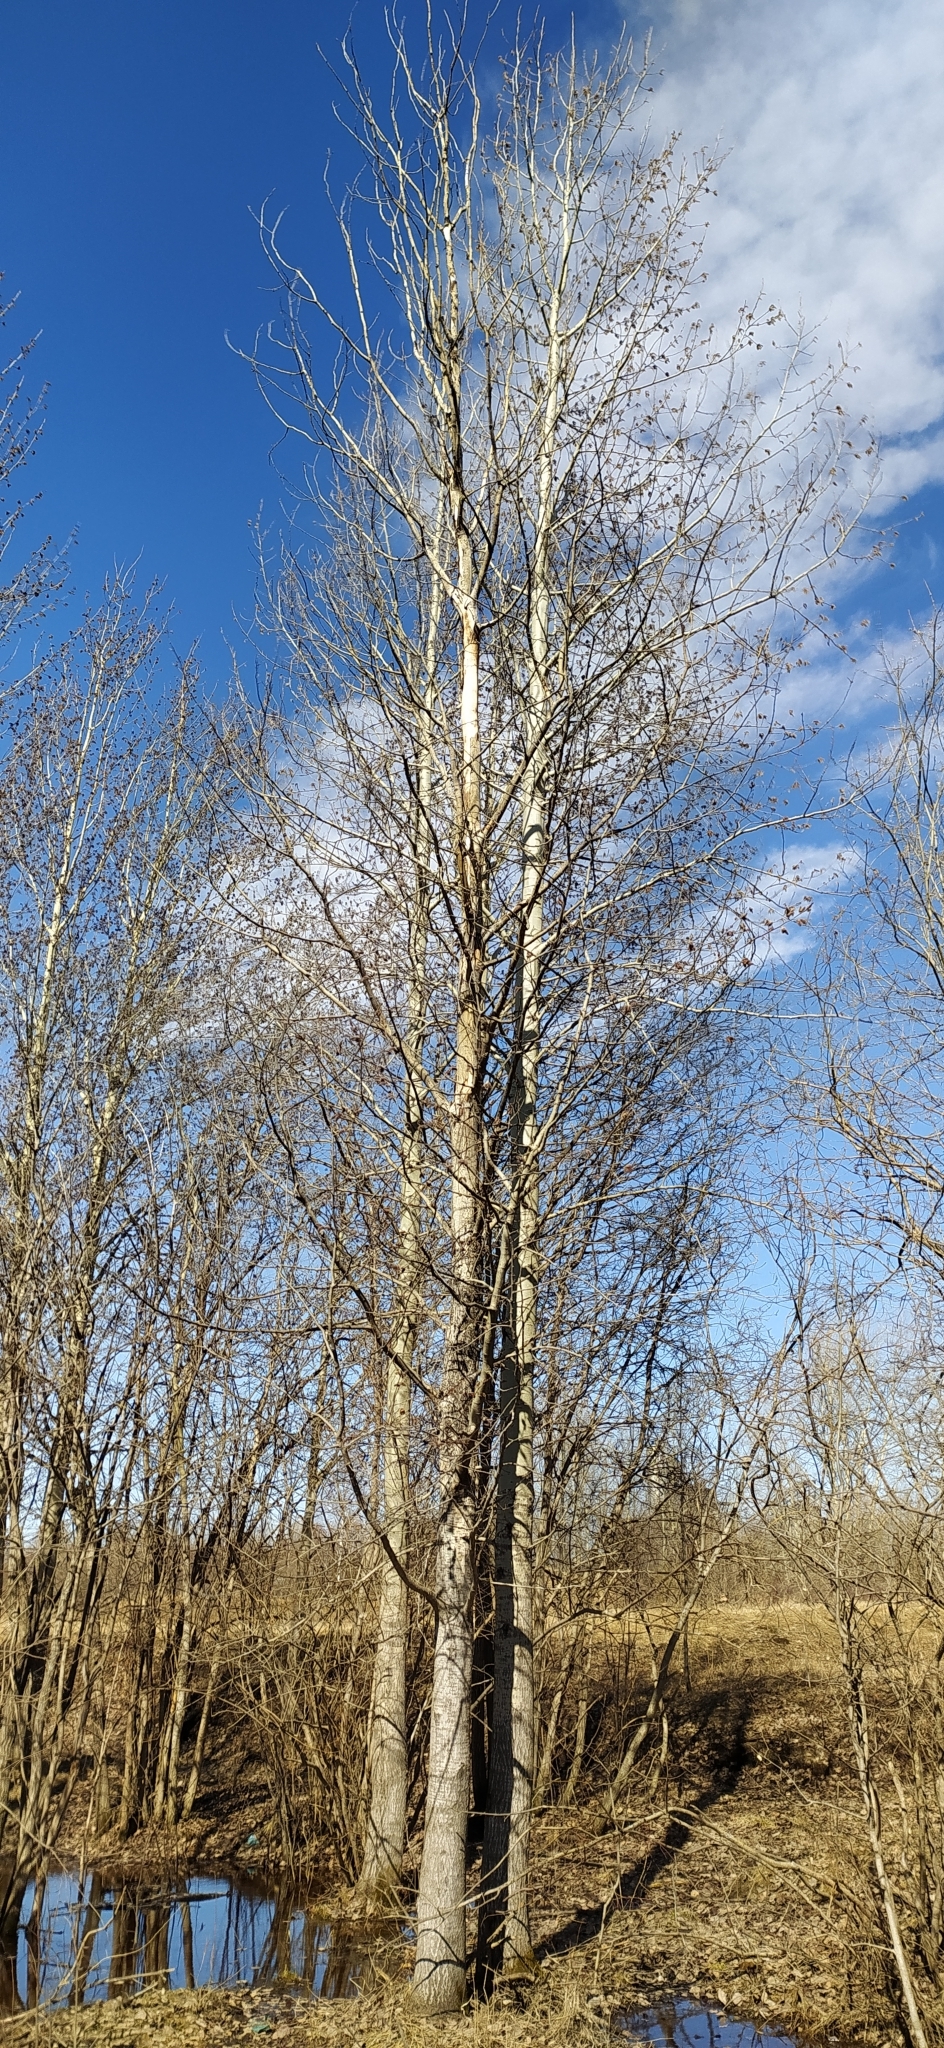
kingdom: Plantae
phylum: Tracheophyta
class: Magnoliopsida
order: Malpighiales
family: Salicaceae
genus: Populus
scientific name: Populus tremula
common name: European aspen
